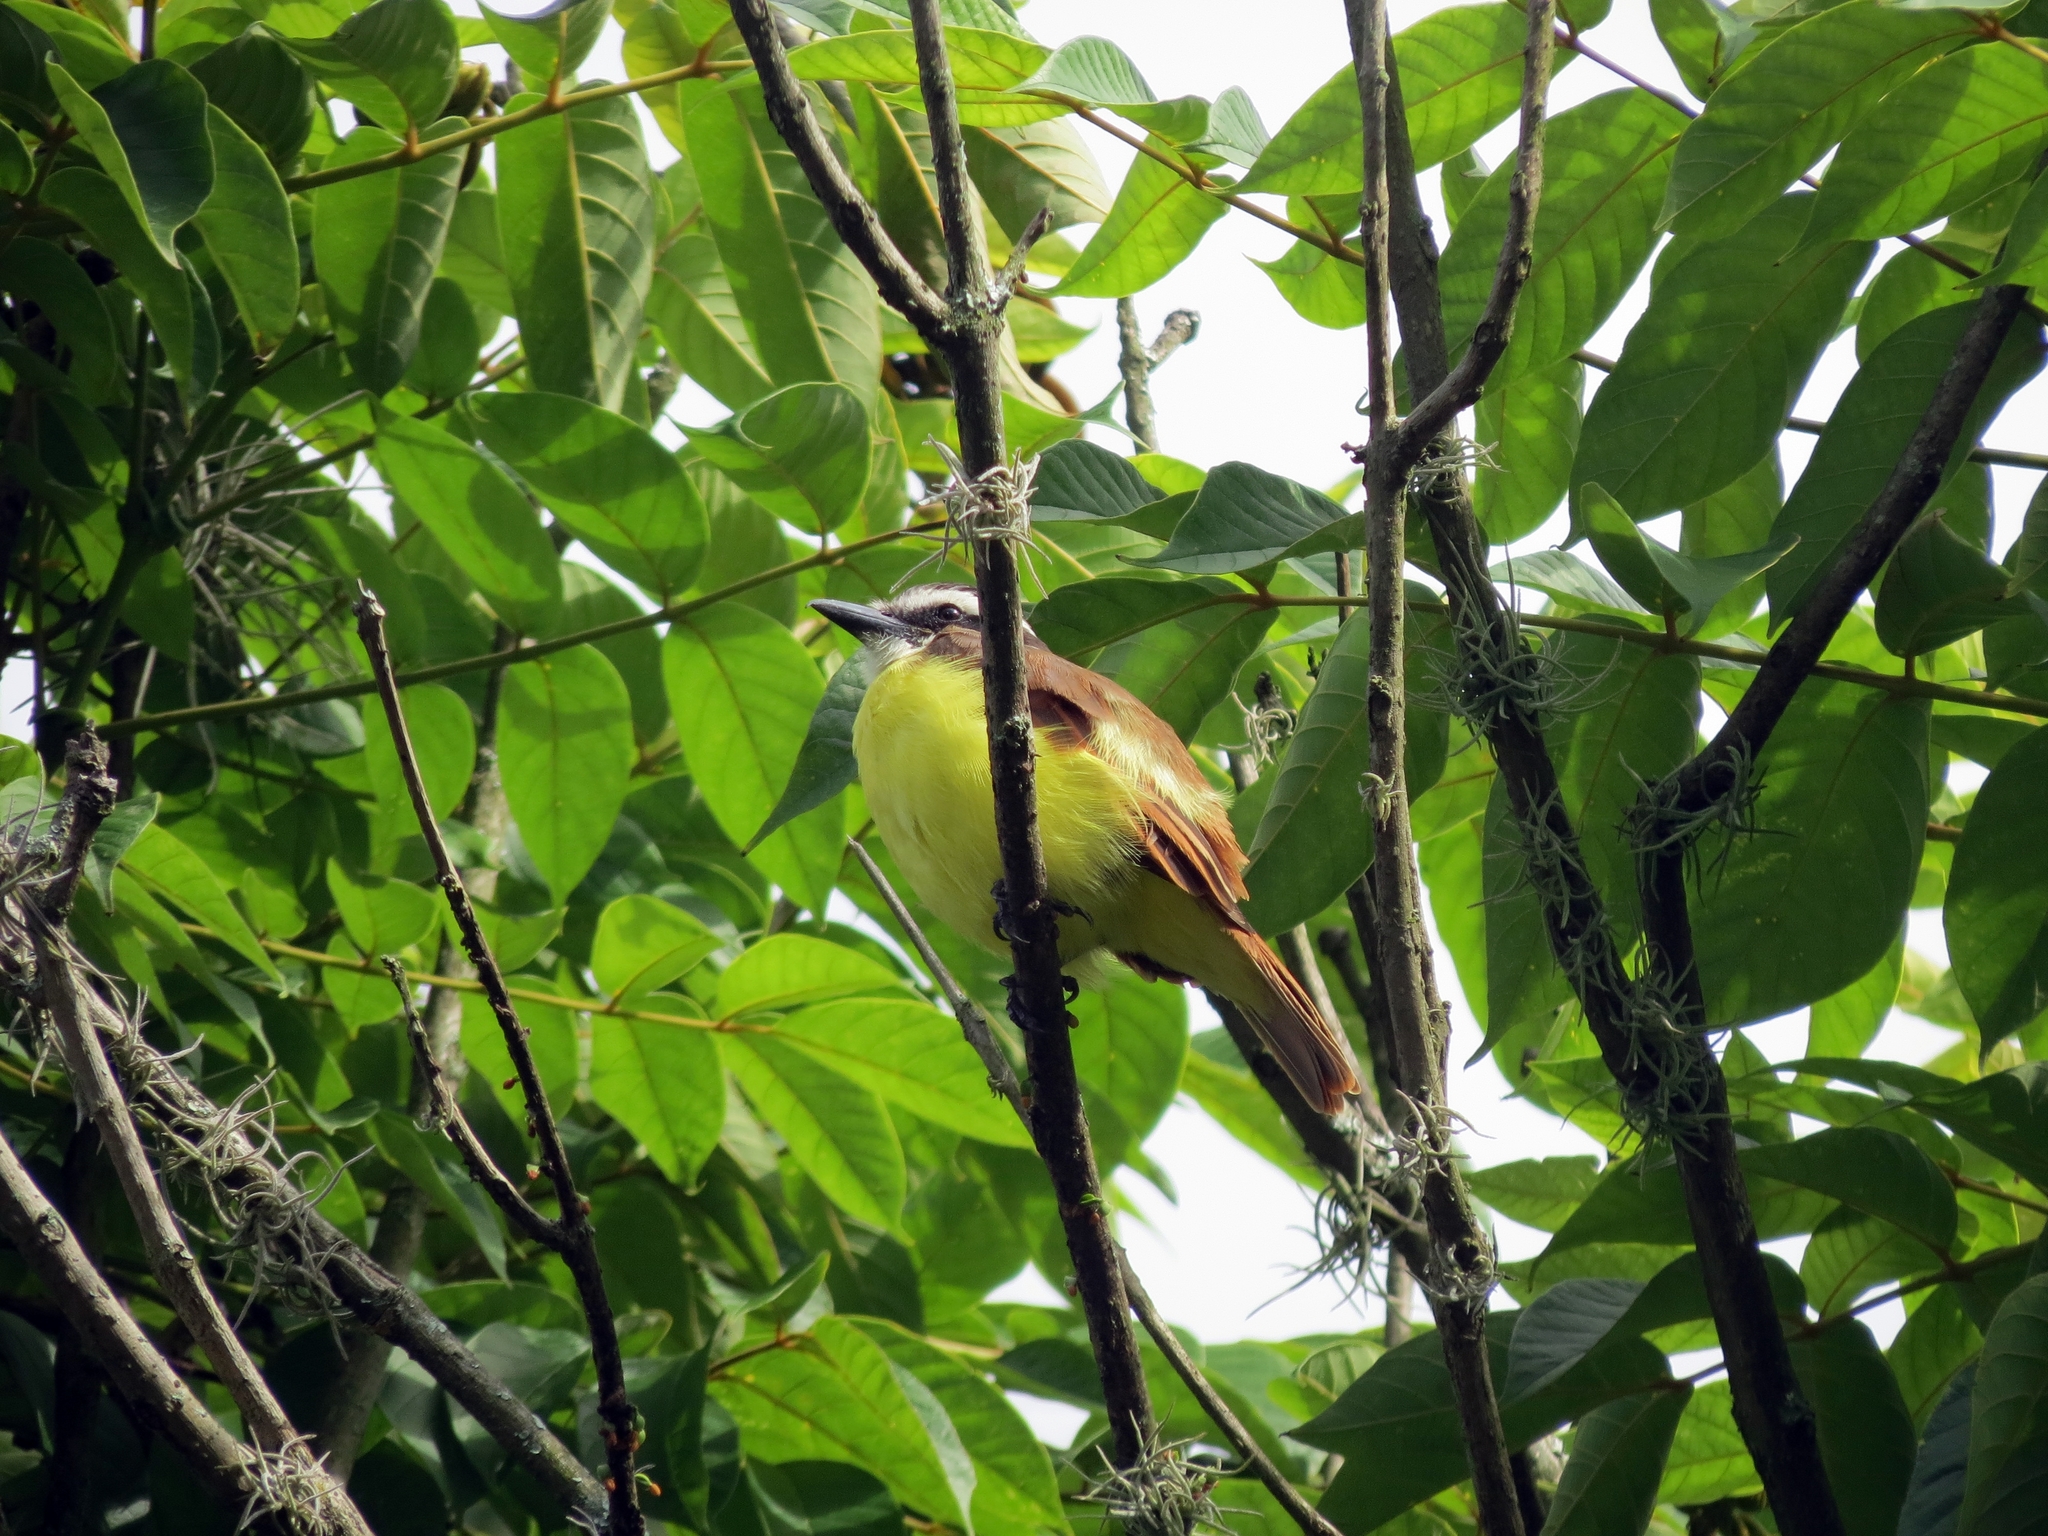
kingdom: Animalia
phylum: Chordata
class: Aves
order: Passeriformes
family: Tyrannidae
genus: Pitangus
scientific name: Pitangus sulphuratus
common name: Great kiskadee
